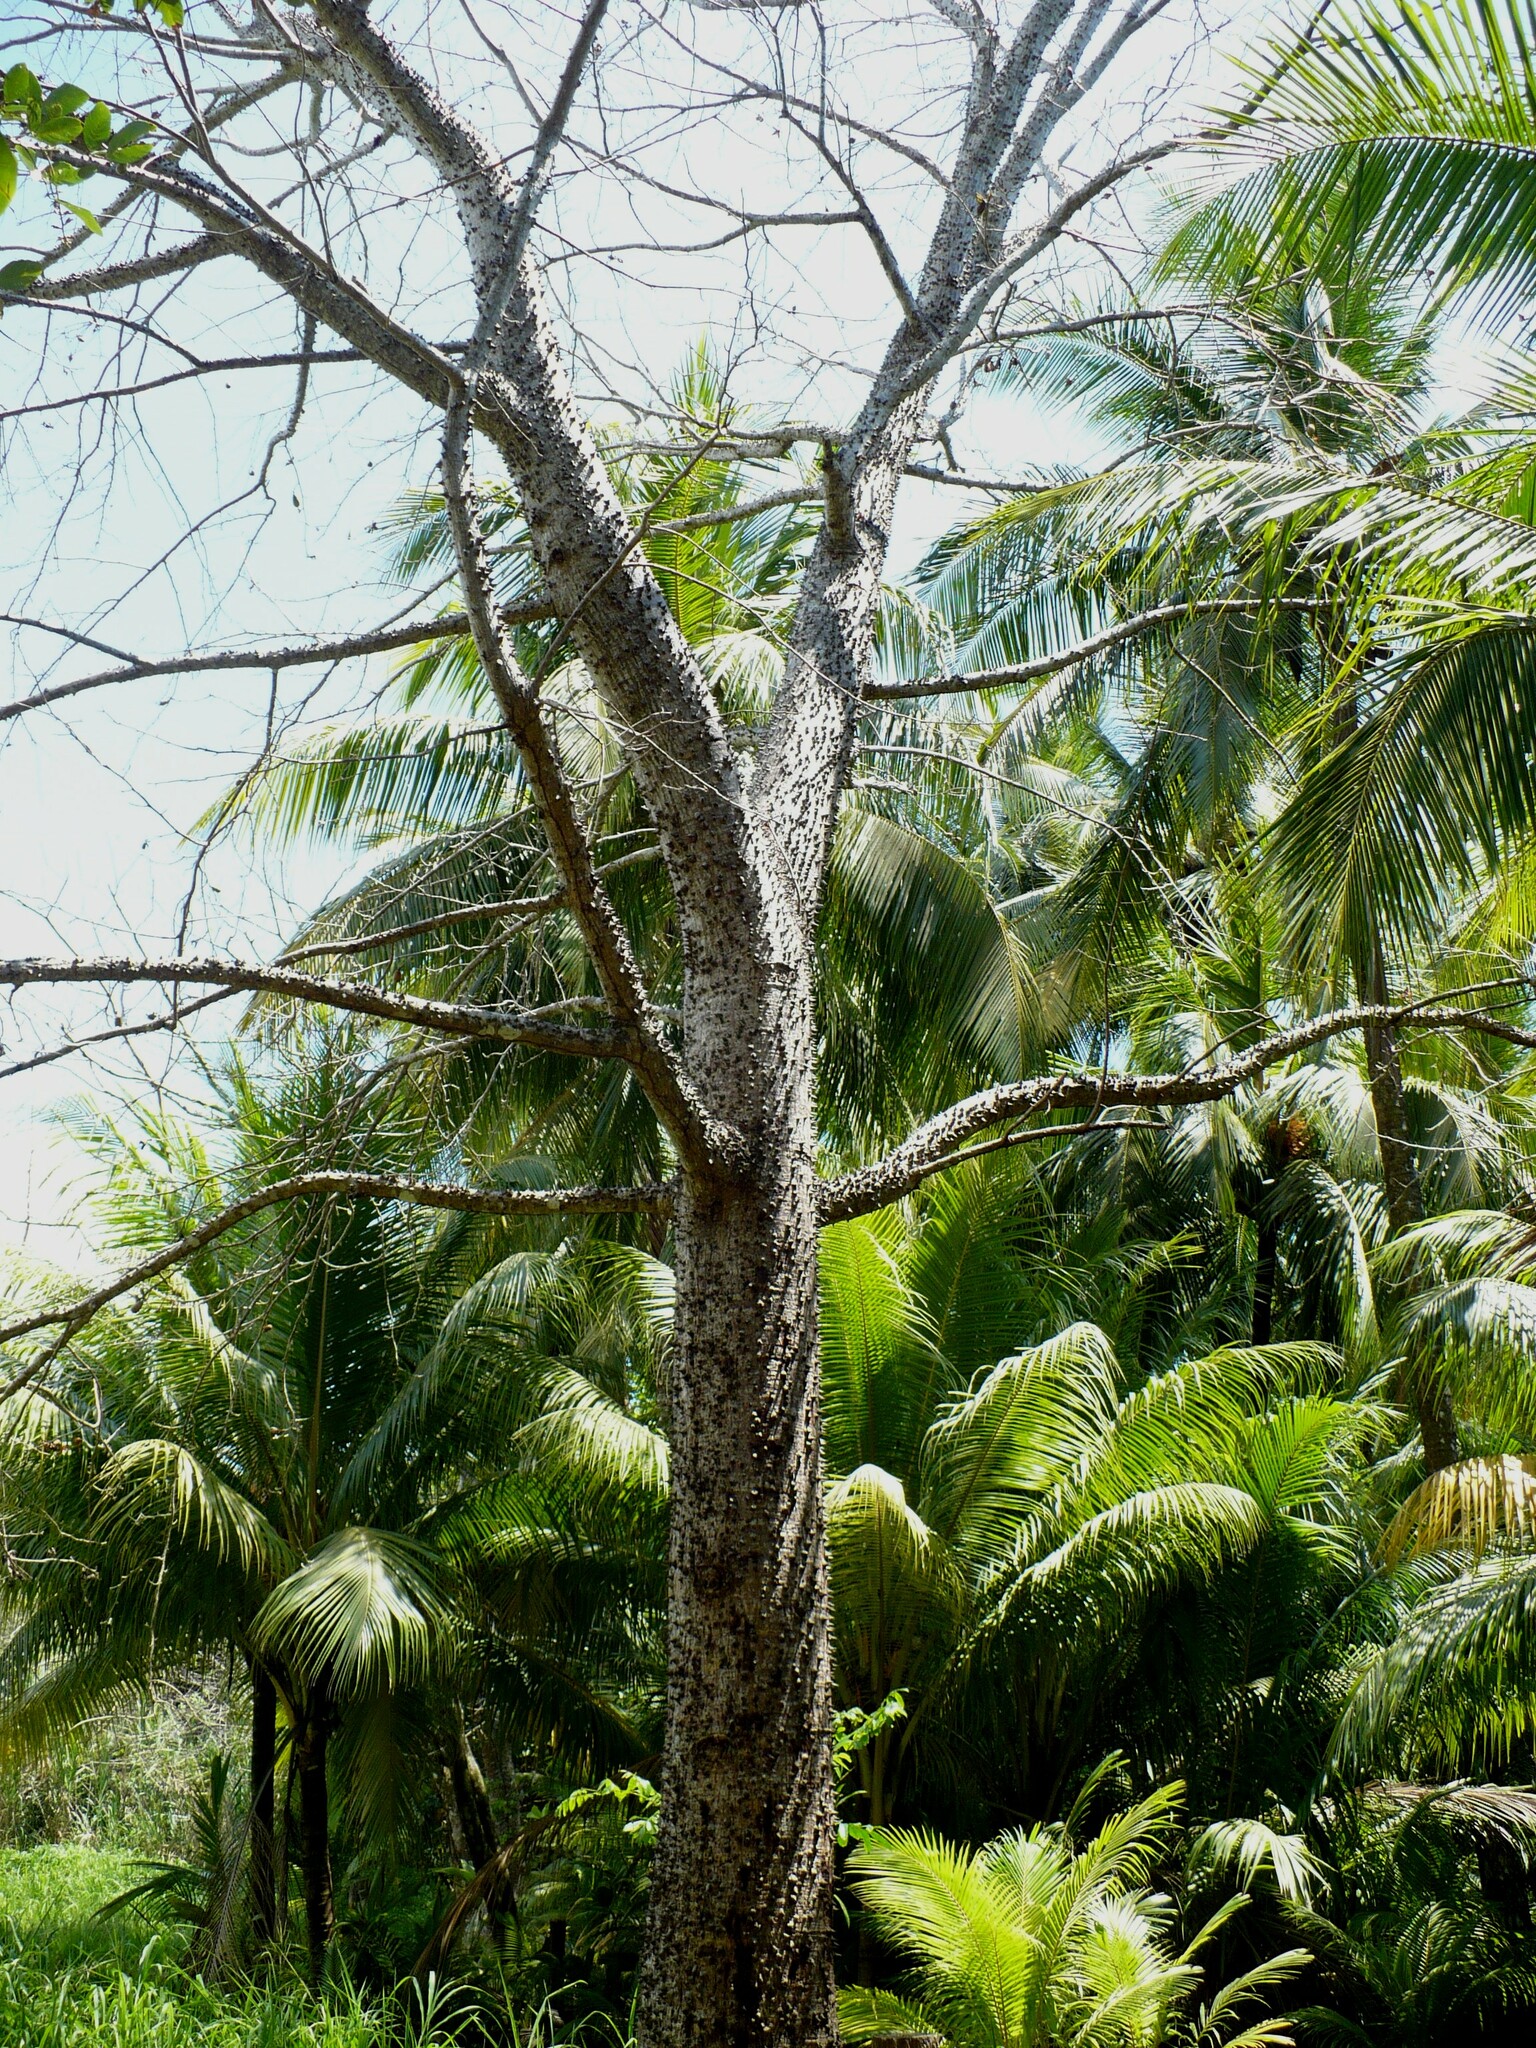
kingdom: Plantae
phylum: Tracheophyta
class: Magnoliopsida
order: Malvales
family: Malvaceae
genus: Pochota
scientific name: Pochota fendleri
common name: Chestnut
